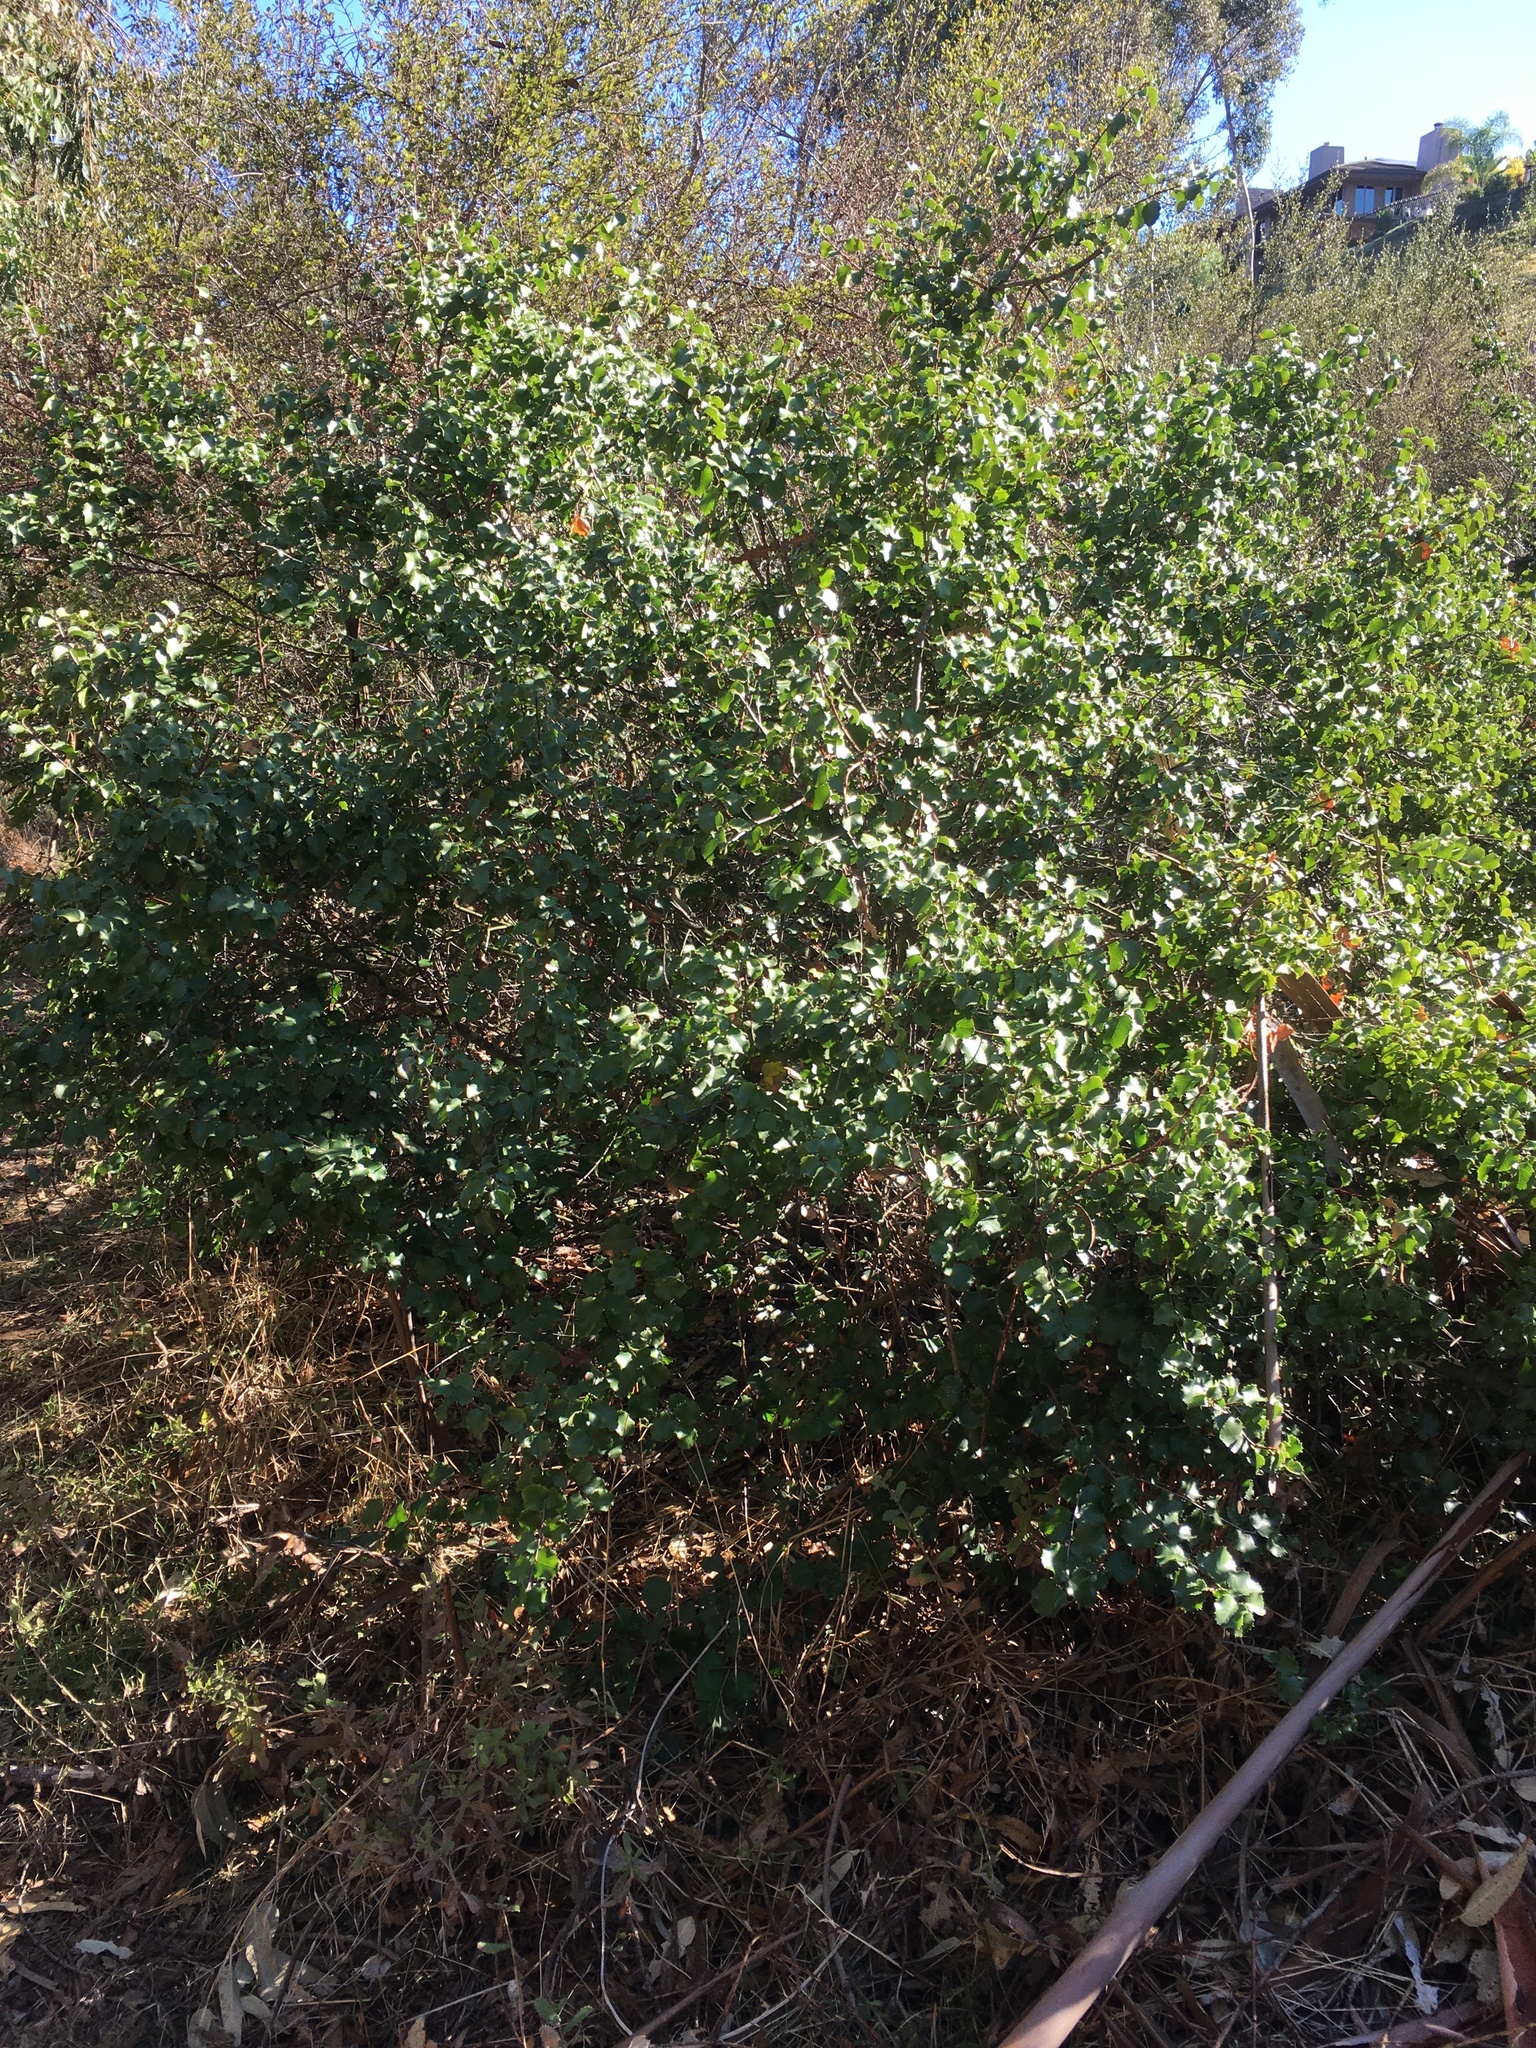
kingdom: Plantae
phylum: Tracheophyta
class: Magnoliopsida
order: Rosales
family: Rosaceae
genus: Prunus
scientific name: Prunus ilicifolia
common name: Hollyleaf cherry
